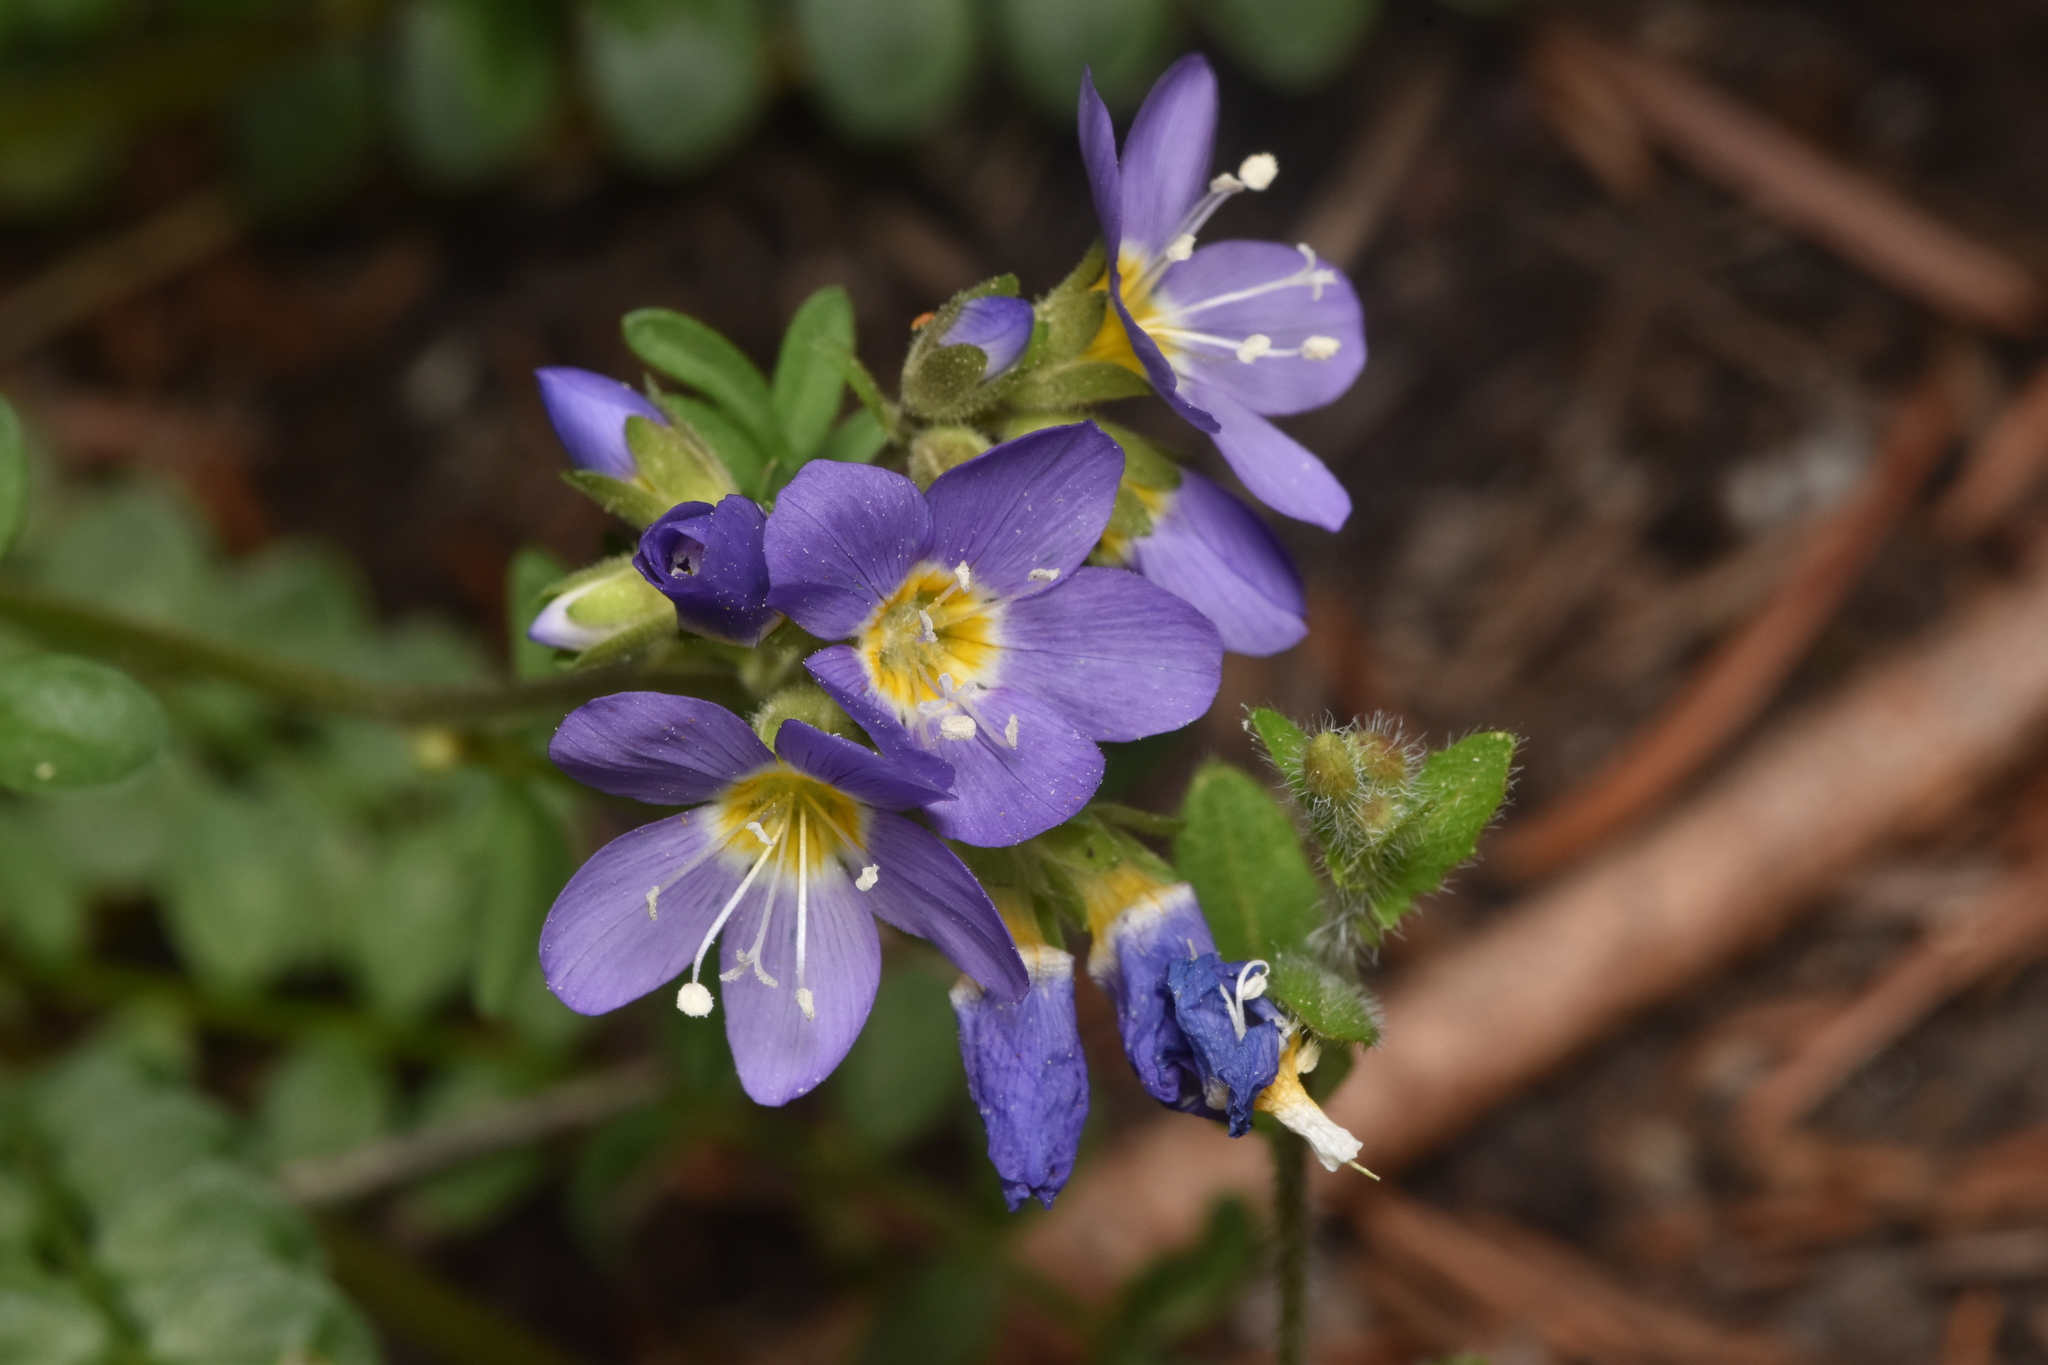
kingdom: Plantae
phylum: Tracheophyta
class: Magnoliopsida
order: Ericales
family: Polemoniaceae
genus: Polemonium
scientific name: Polemonium pulcherrimum
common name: Short jacob's-ladder
